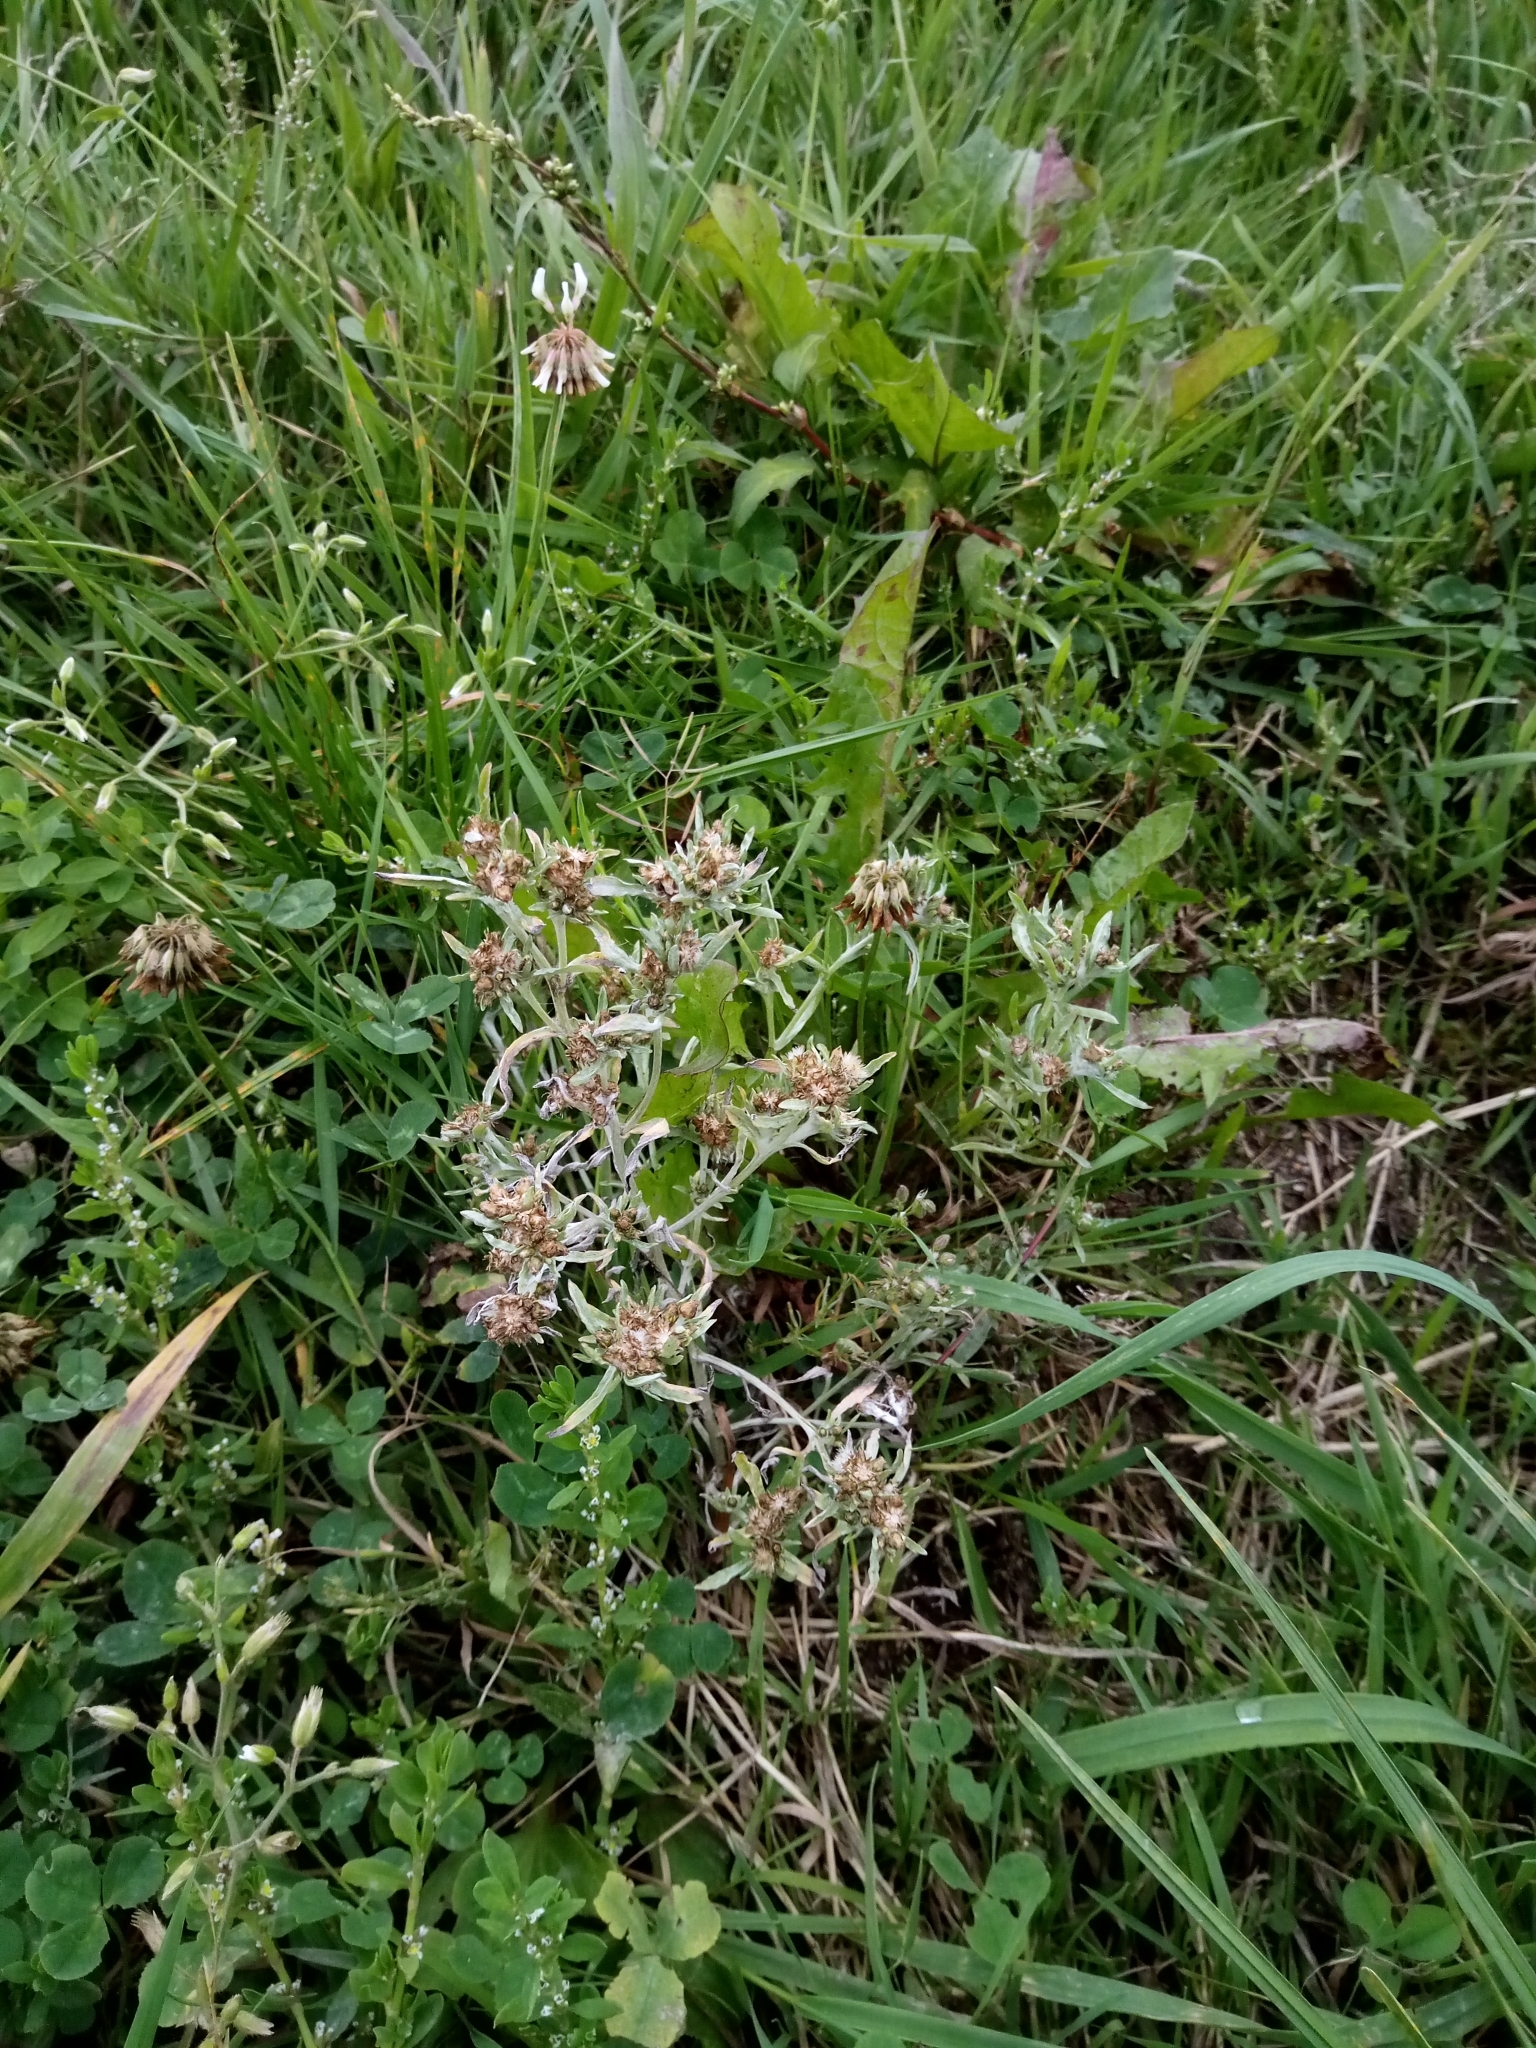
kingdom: Plantae
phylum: Tracheophyta
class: Magnoliopsida
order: Asterales
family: Asteraceae
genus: Gnaphalium
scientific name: Gnaphalium uliginosum
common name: Marsh cudweed
